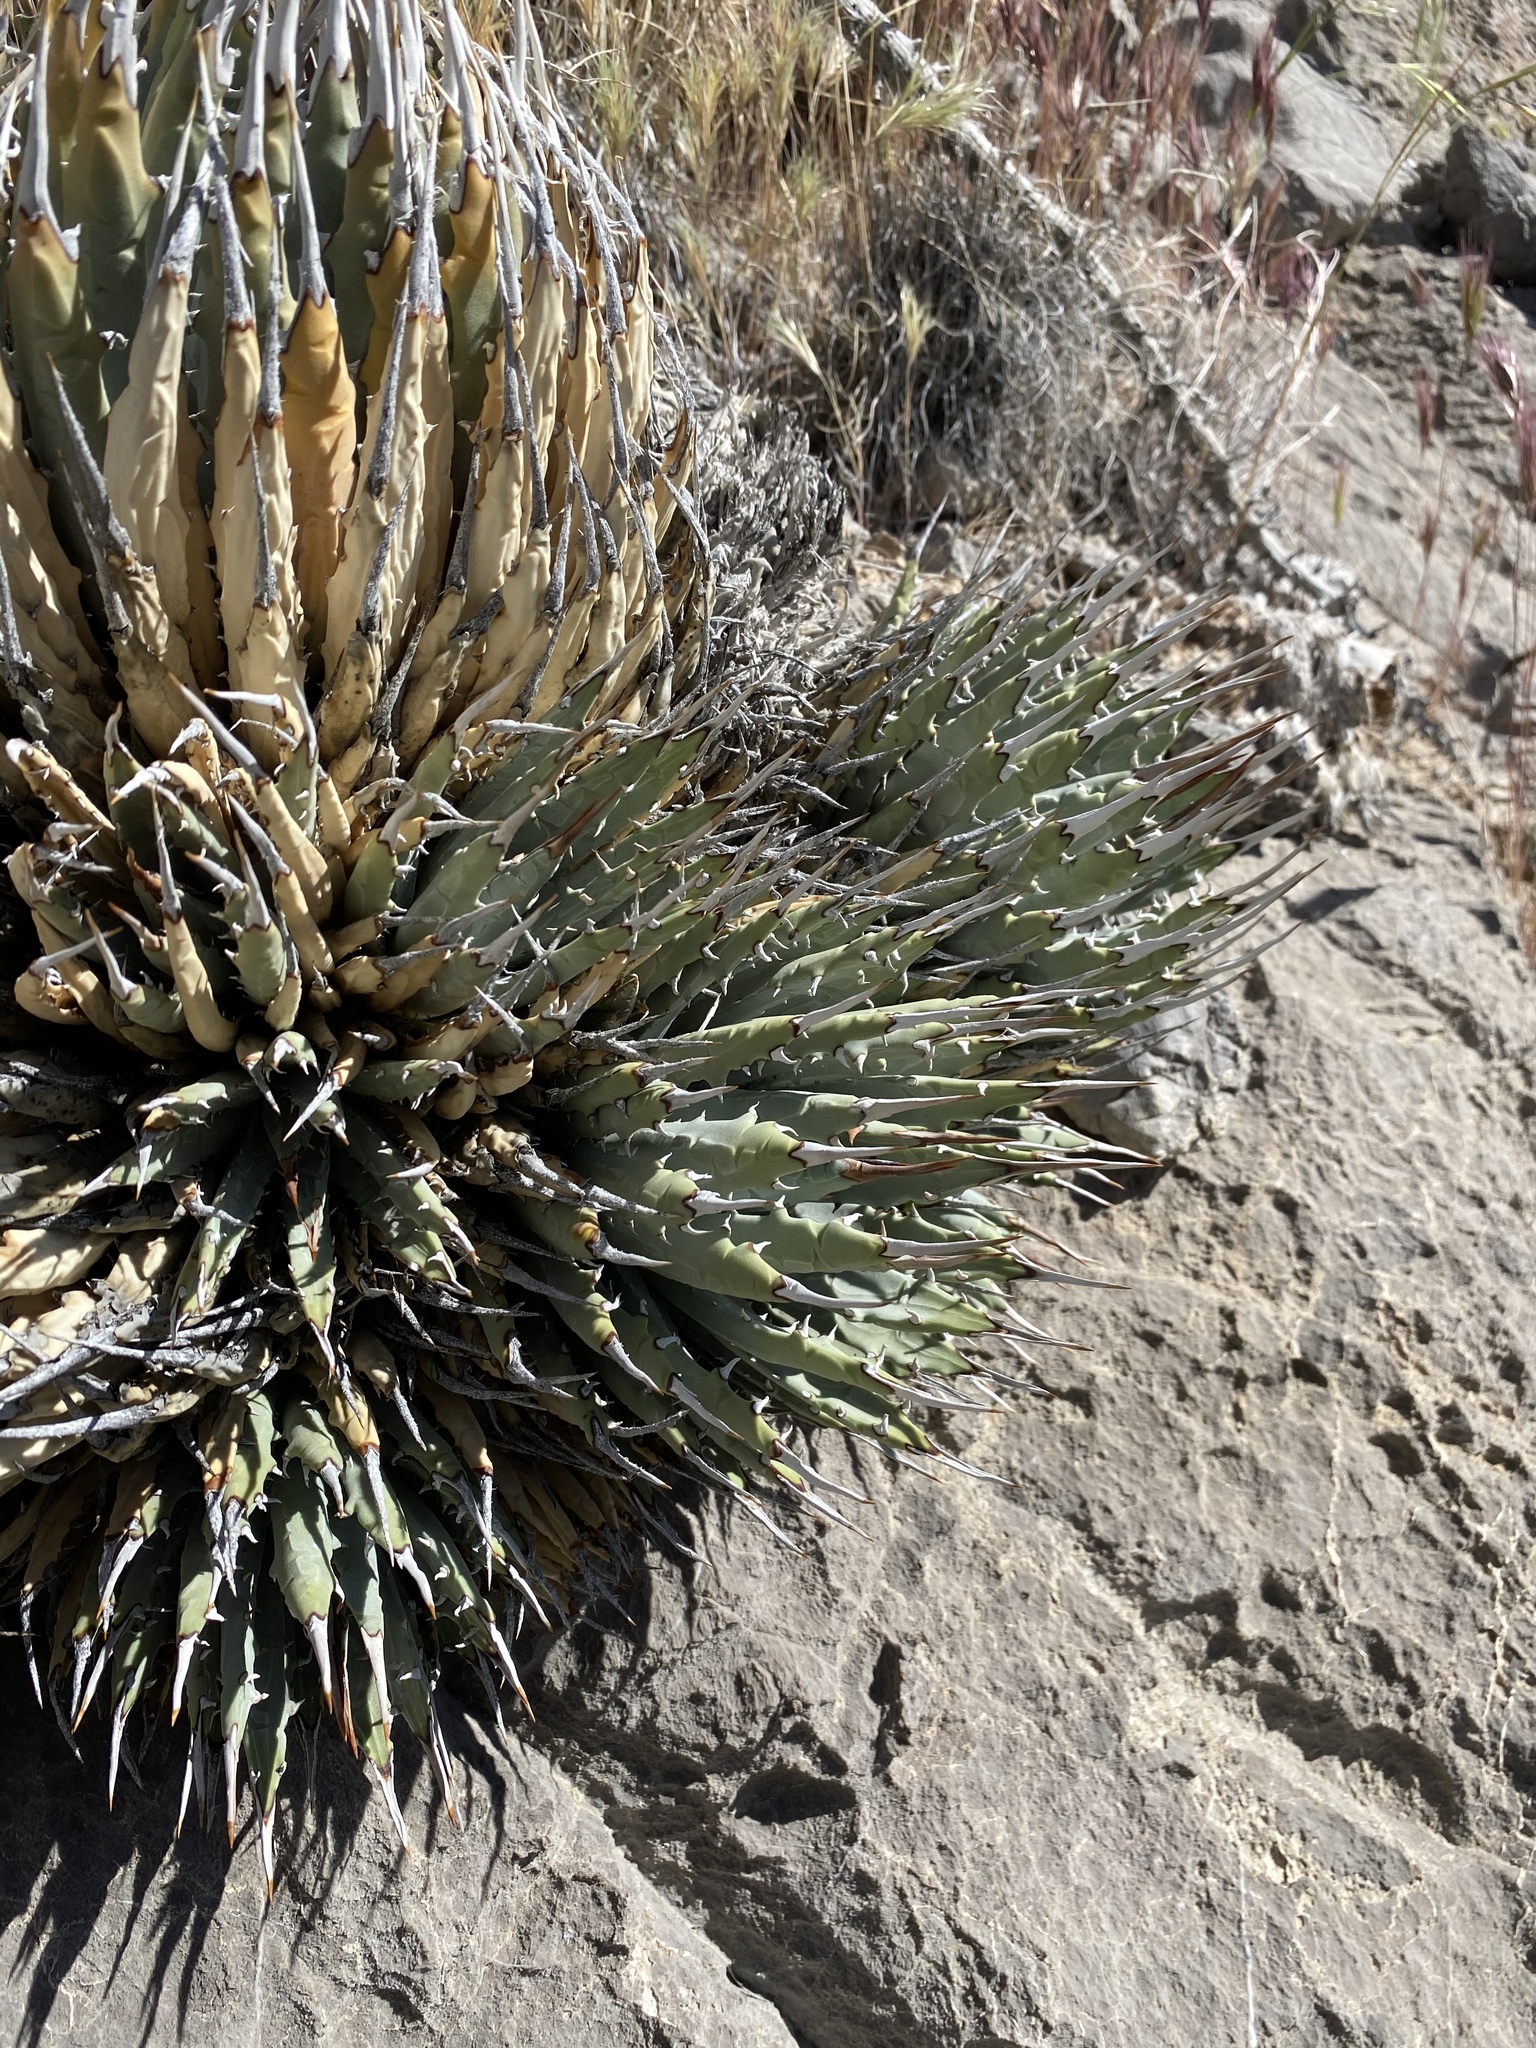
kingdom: Plantae
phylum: Tracheophyta
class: Liliopsida
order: Asparagales
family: Asparagaceae
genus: Agave
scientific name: Agave utahensis
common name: Utah agave
